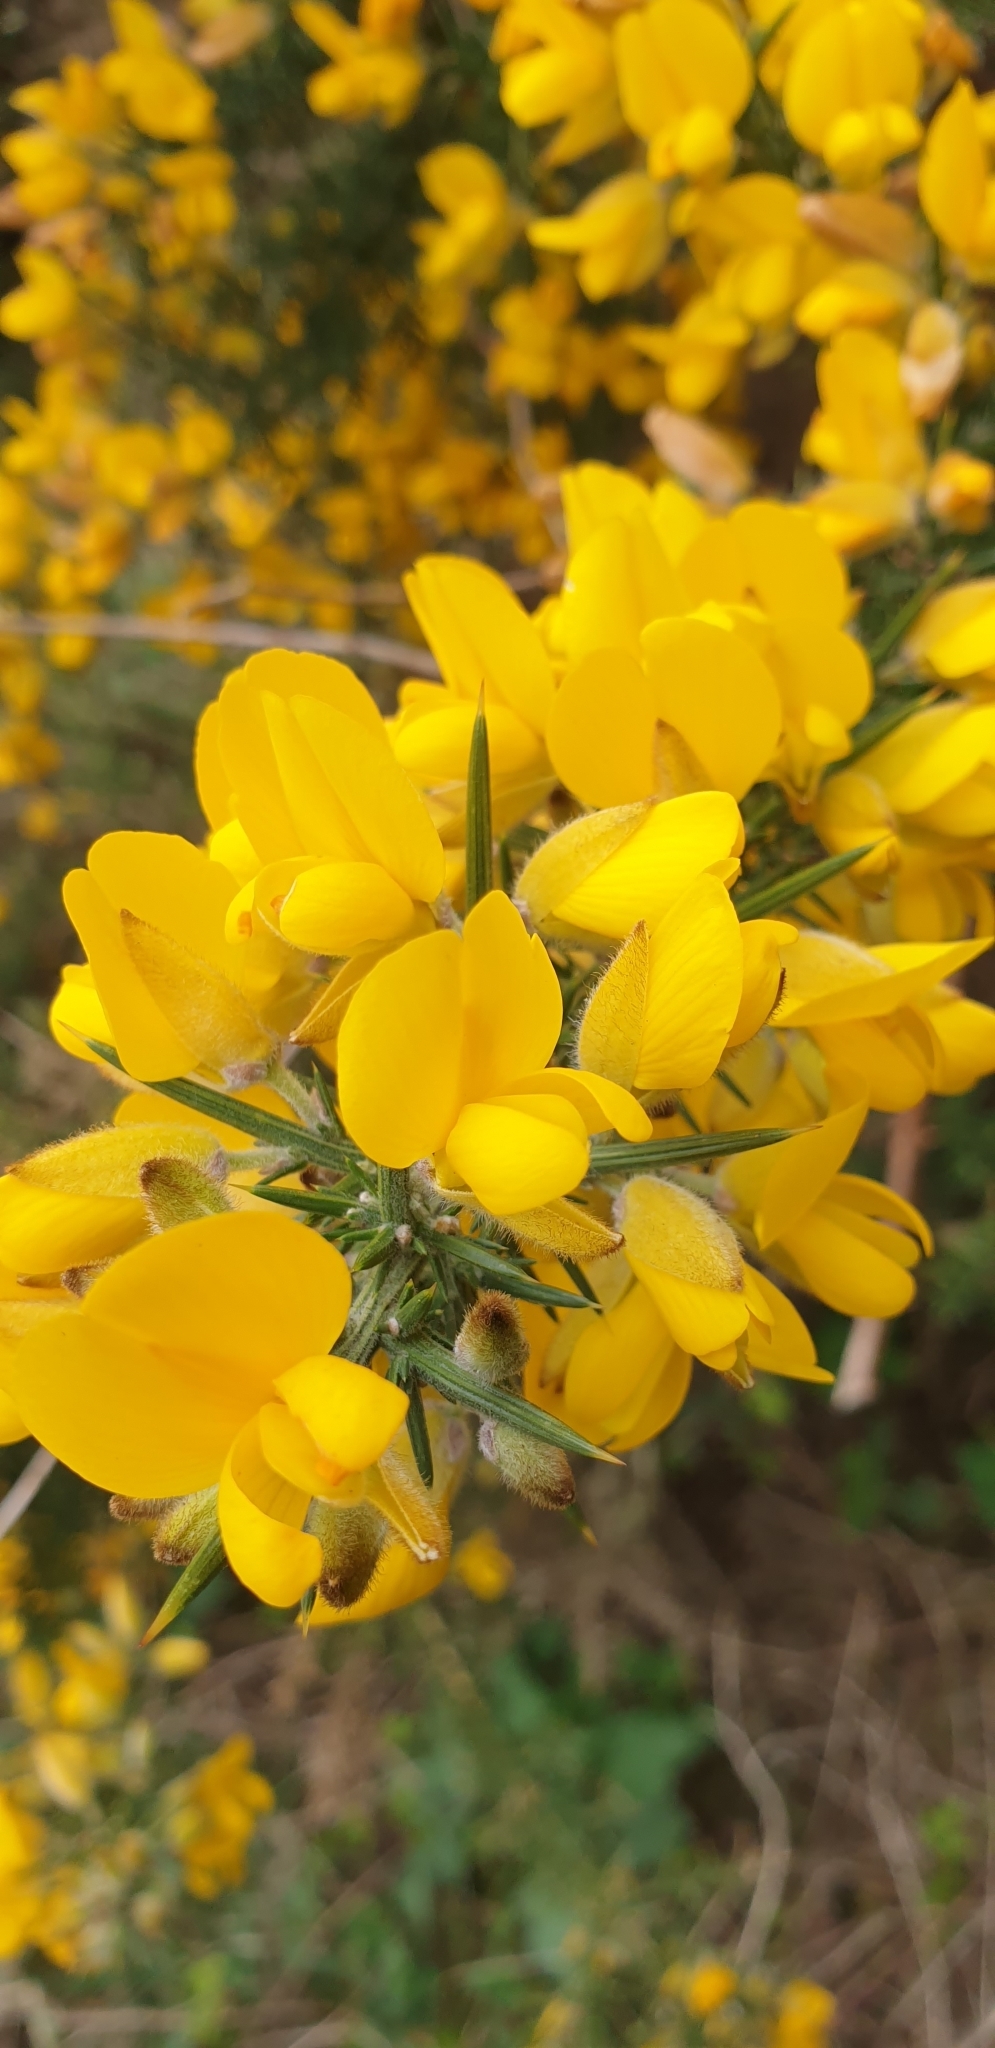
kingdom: Plantae
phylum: Tracheophyta
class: Magnoliopsida
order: Fabales
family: Fabaceae
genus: Ulex
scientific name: Ulex europaeus
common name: Common gorse
